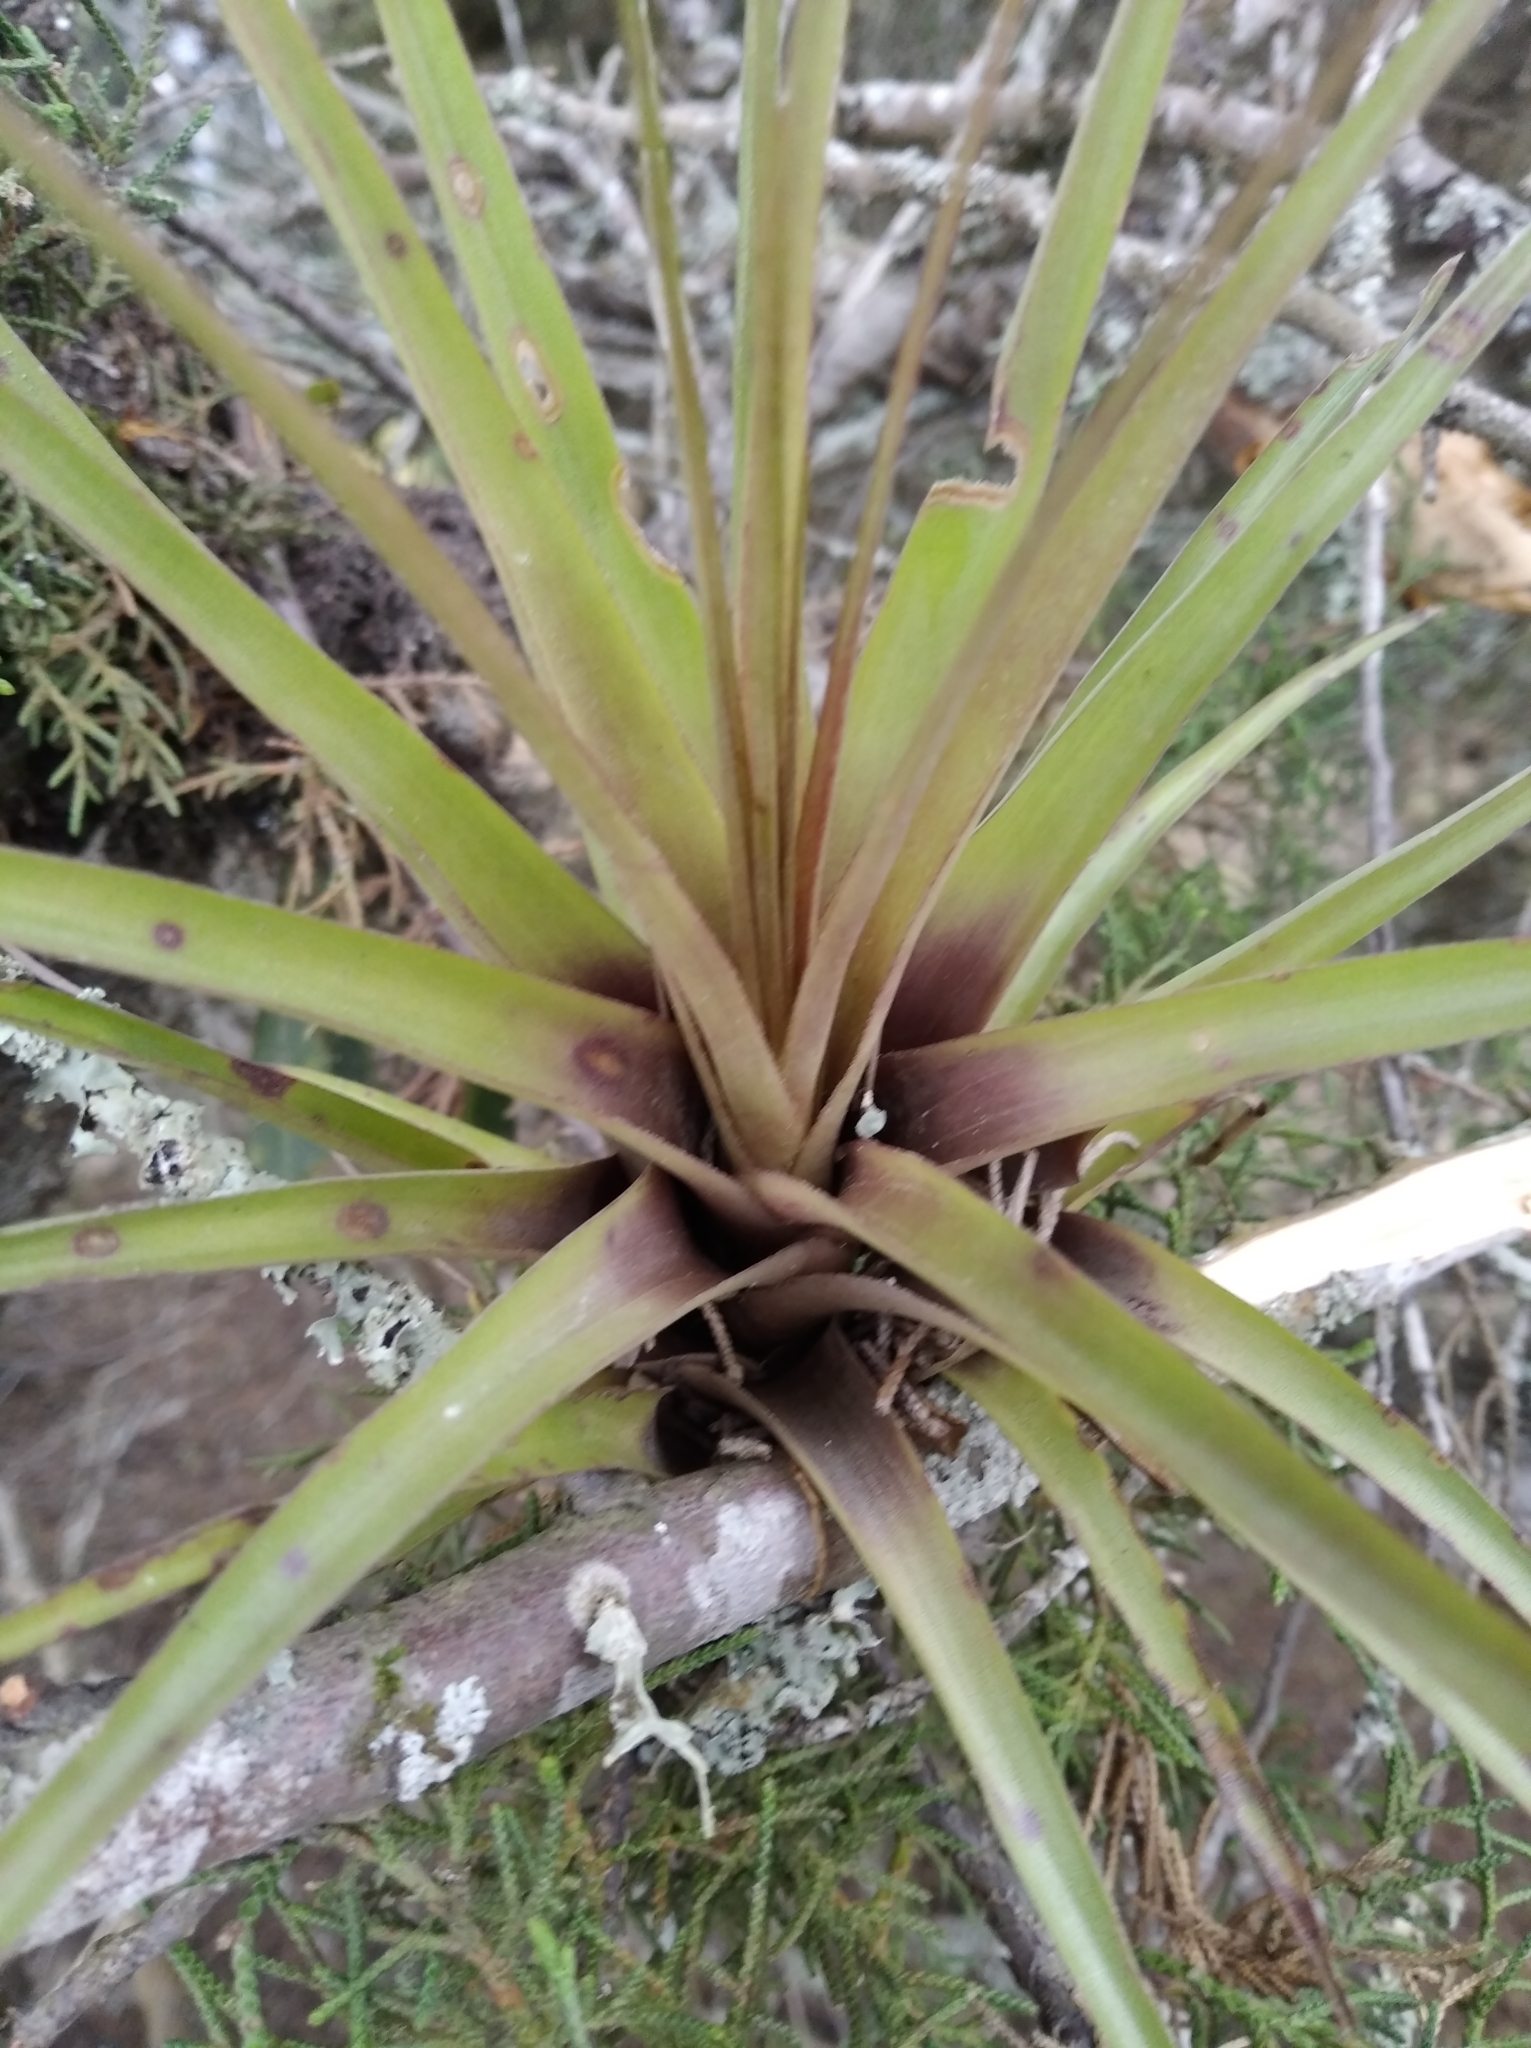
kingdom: Plantae
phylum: Tracheophyta
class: Liliopsida
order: Poales
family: Bromeliaceae
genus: Tillandsia
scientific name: Tillandsia fasciculata
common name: Giant airplant
